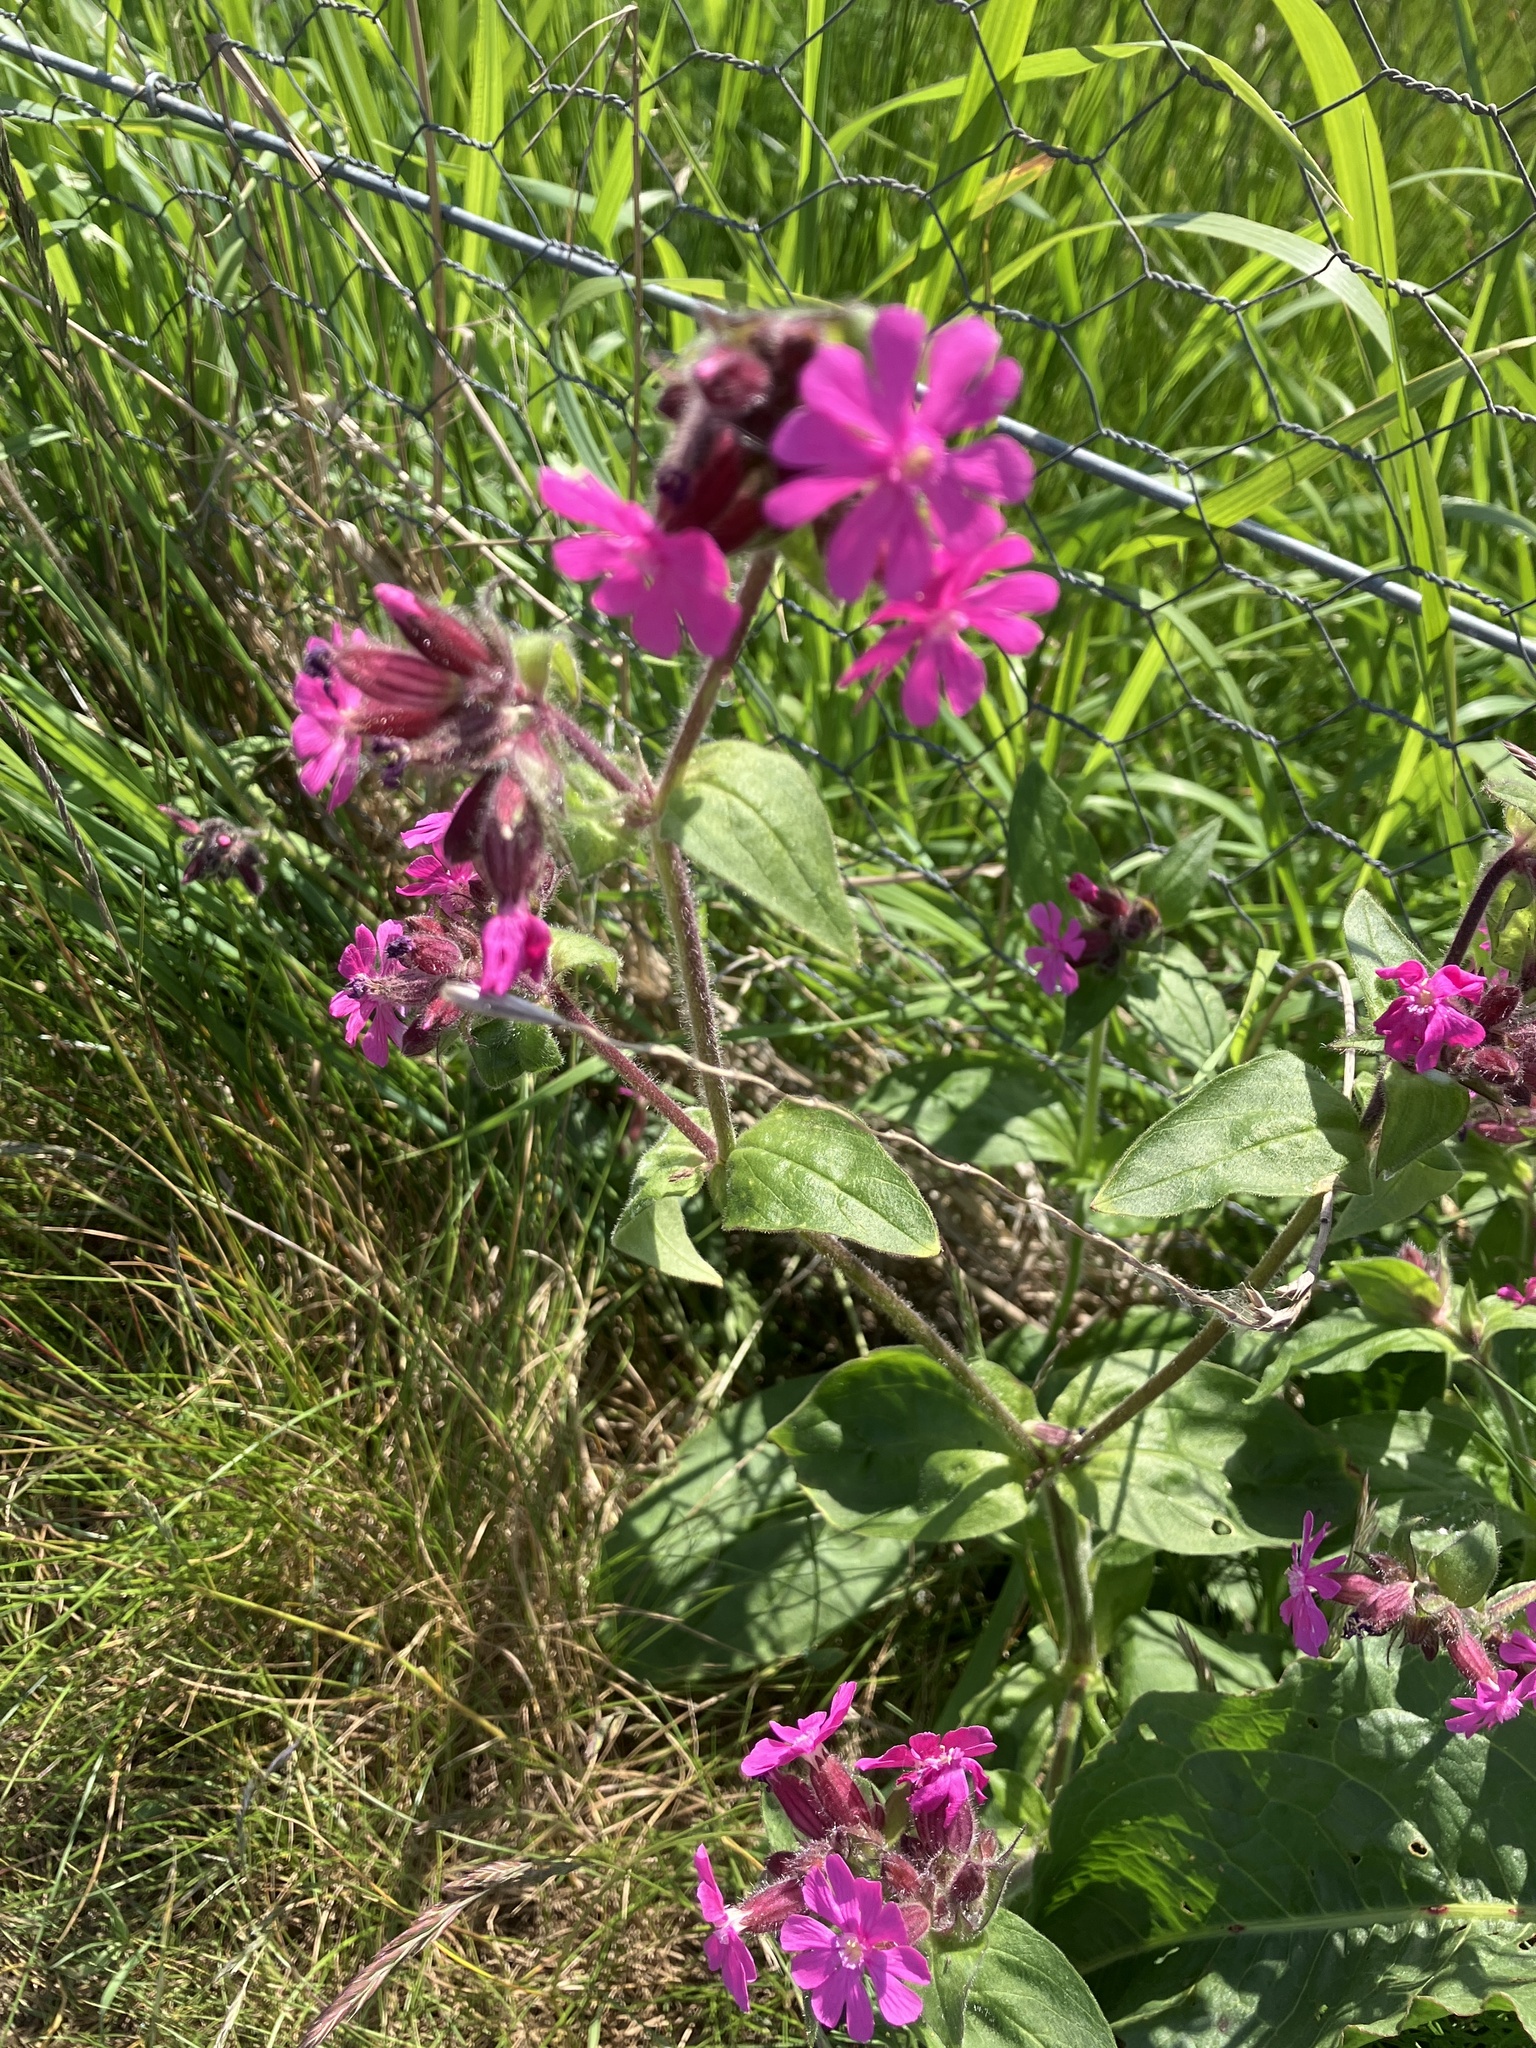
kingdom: Plantae
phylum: Tracheophyta
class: Magnoliopsida
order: Caryophyllales
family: Caryophyllaceae
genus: Silene
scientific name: Silene dioica
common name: Red campion
